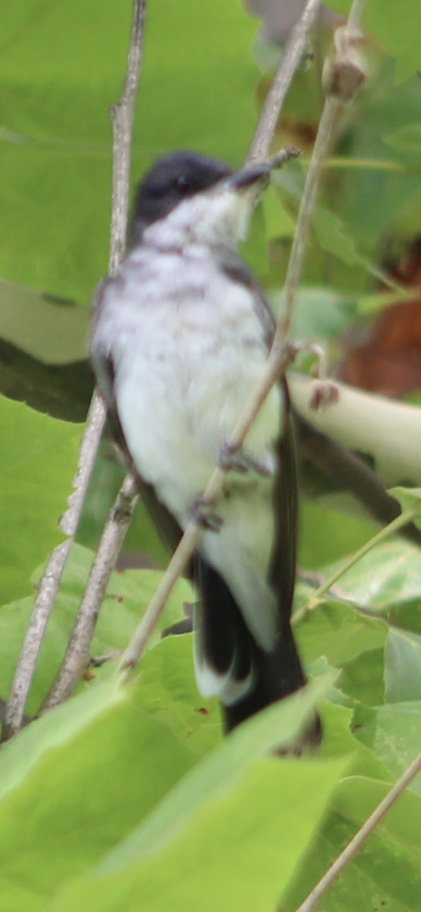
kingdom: Animalia
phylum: Chordata
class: Aves
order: Passeriformes
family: Tyrannidae
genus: Tyrannus
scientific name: Tyrannus tyrannus
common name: Eastern kingbird
